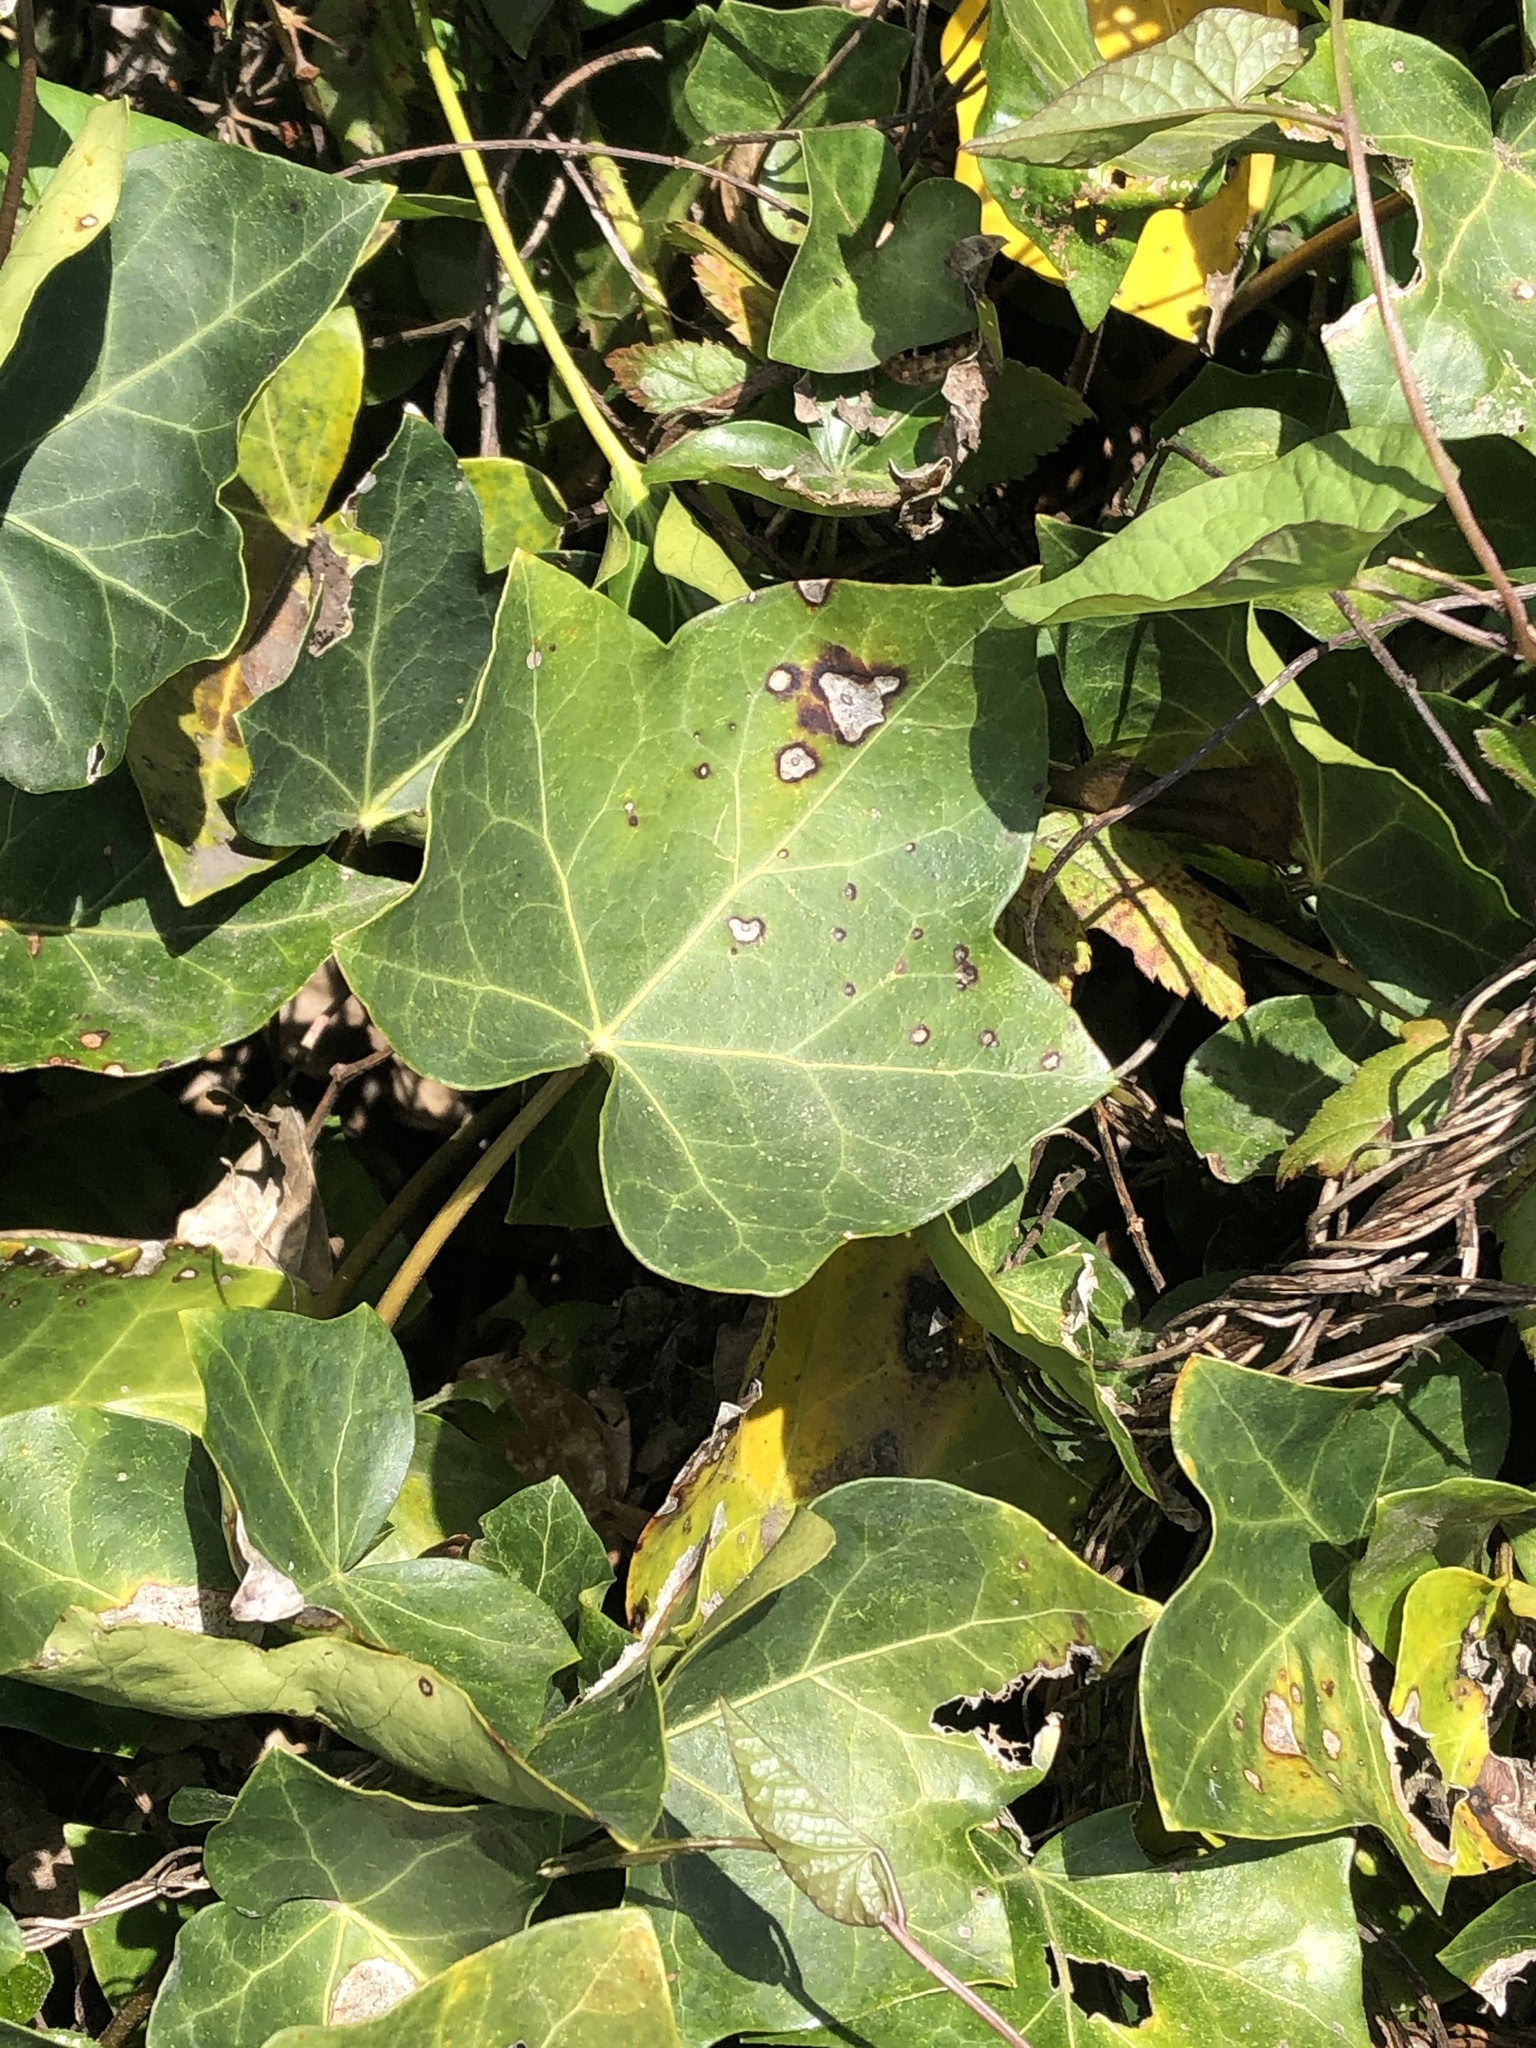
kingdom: Plantae
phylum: Tracheophyta
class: Magnoliopsida
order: Apiales
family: Araliaceae
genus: Hedera
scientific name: Hedera helix
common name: Ivy
